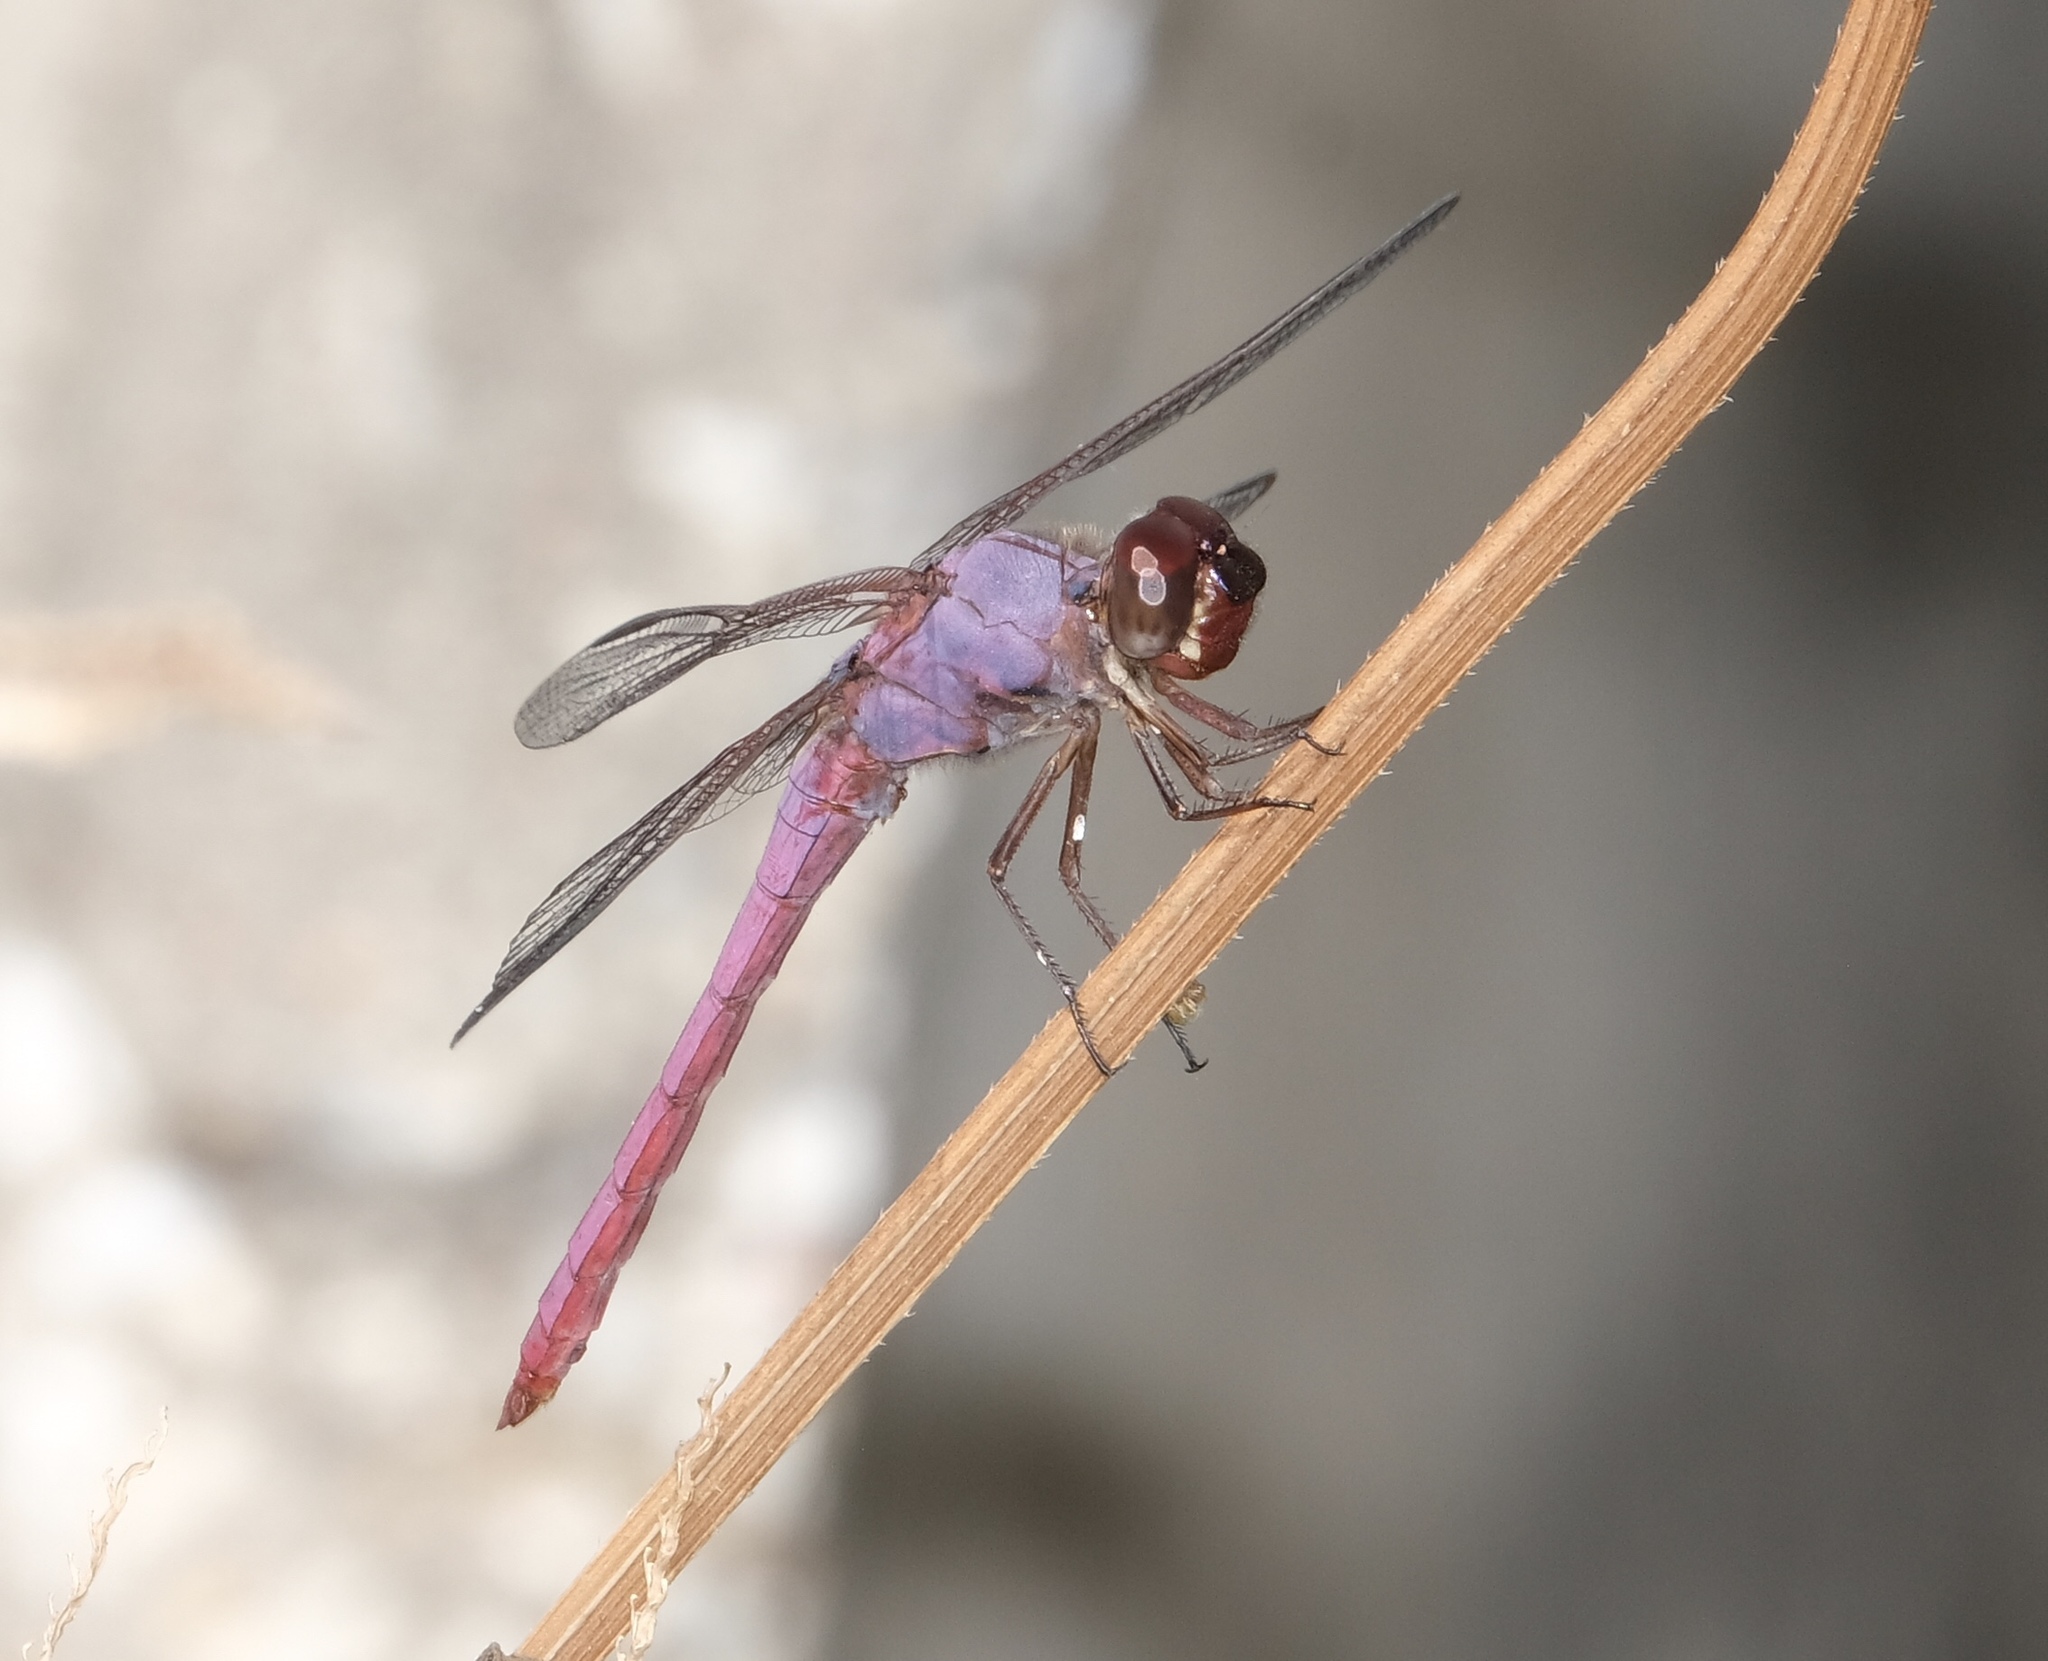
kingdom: Animalia
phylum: Arthropoda
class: Insecta
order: Odonata
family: Libellulidae
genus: Orthemis
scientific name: Orthemis ferruginea
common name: Roseate skimmer
